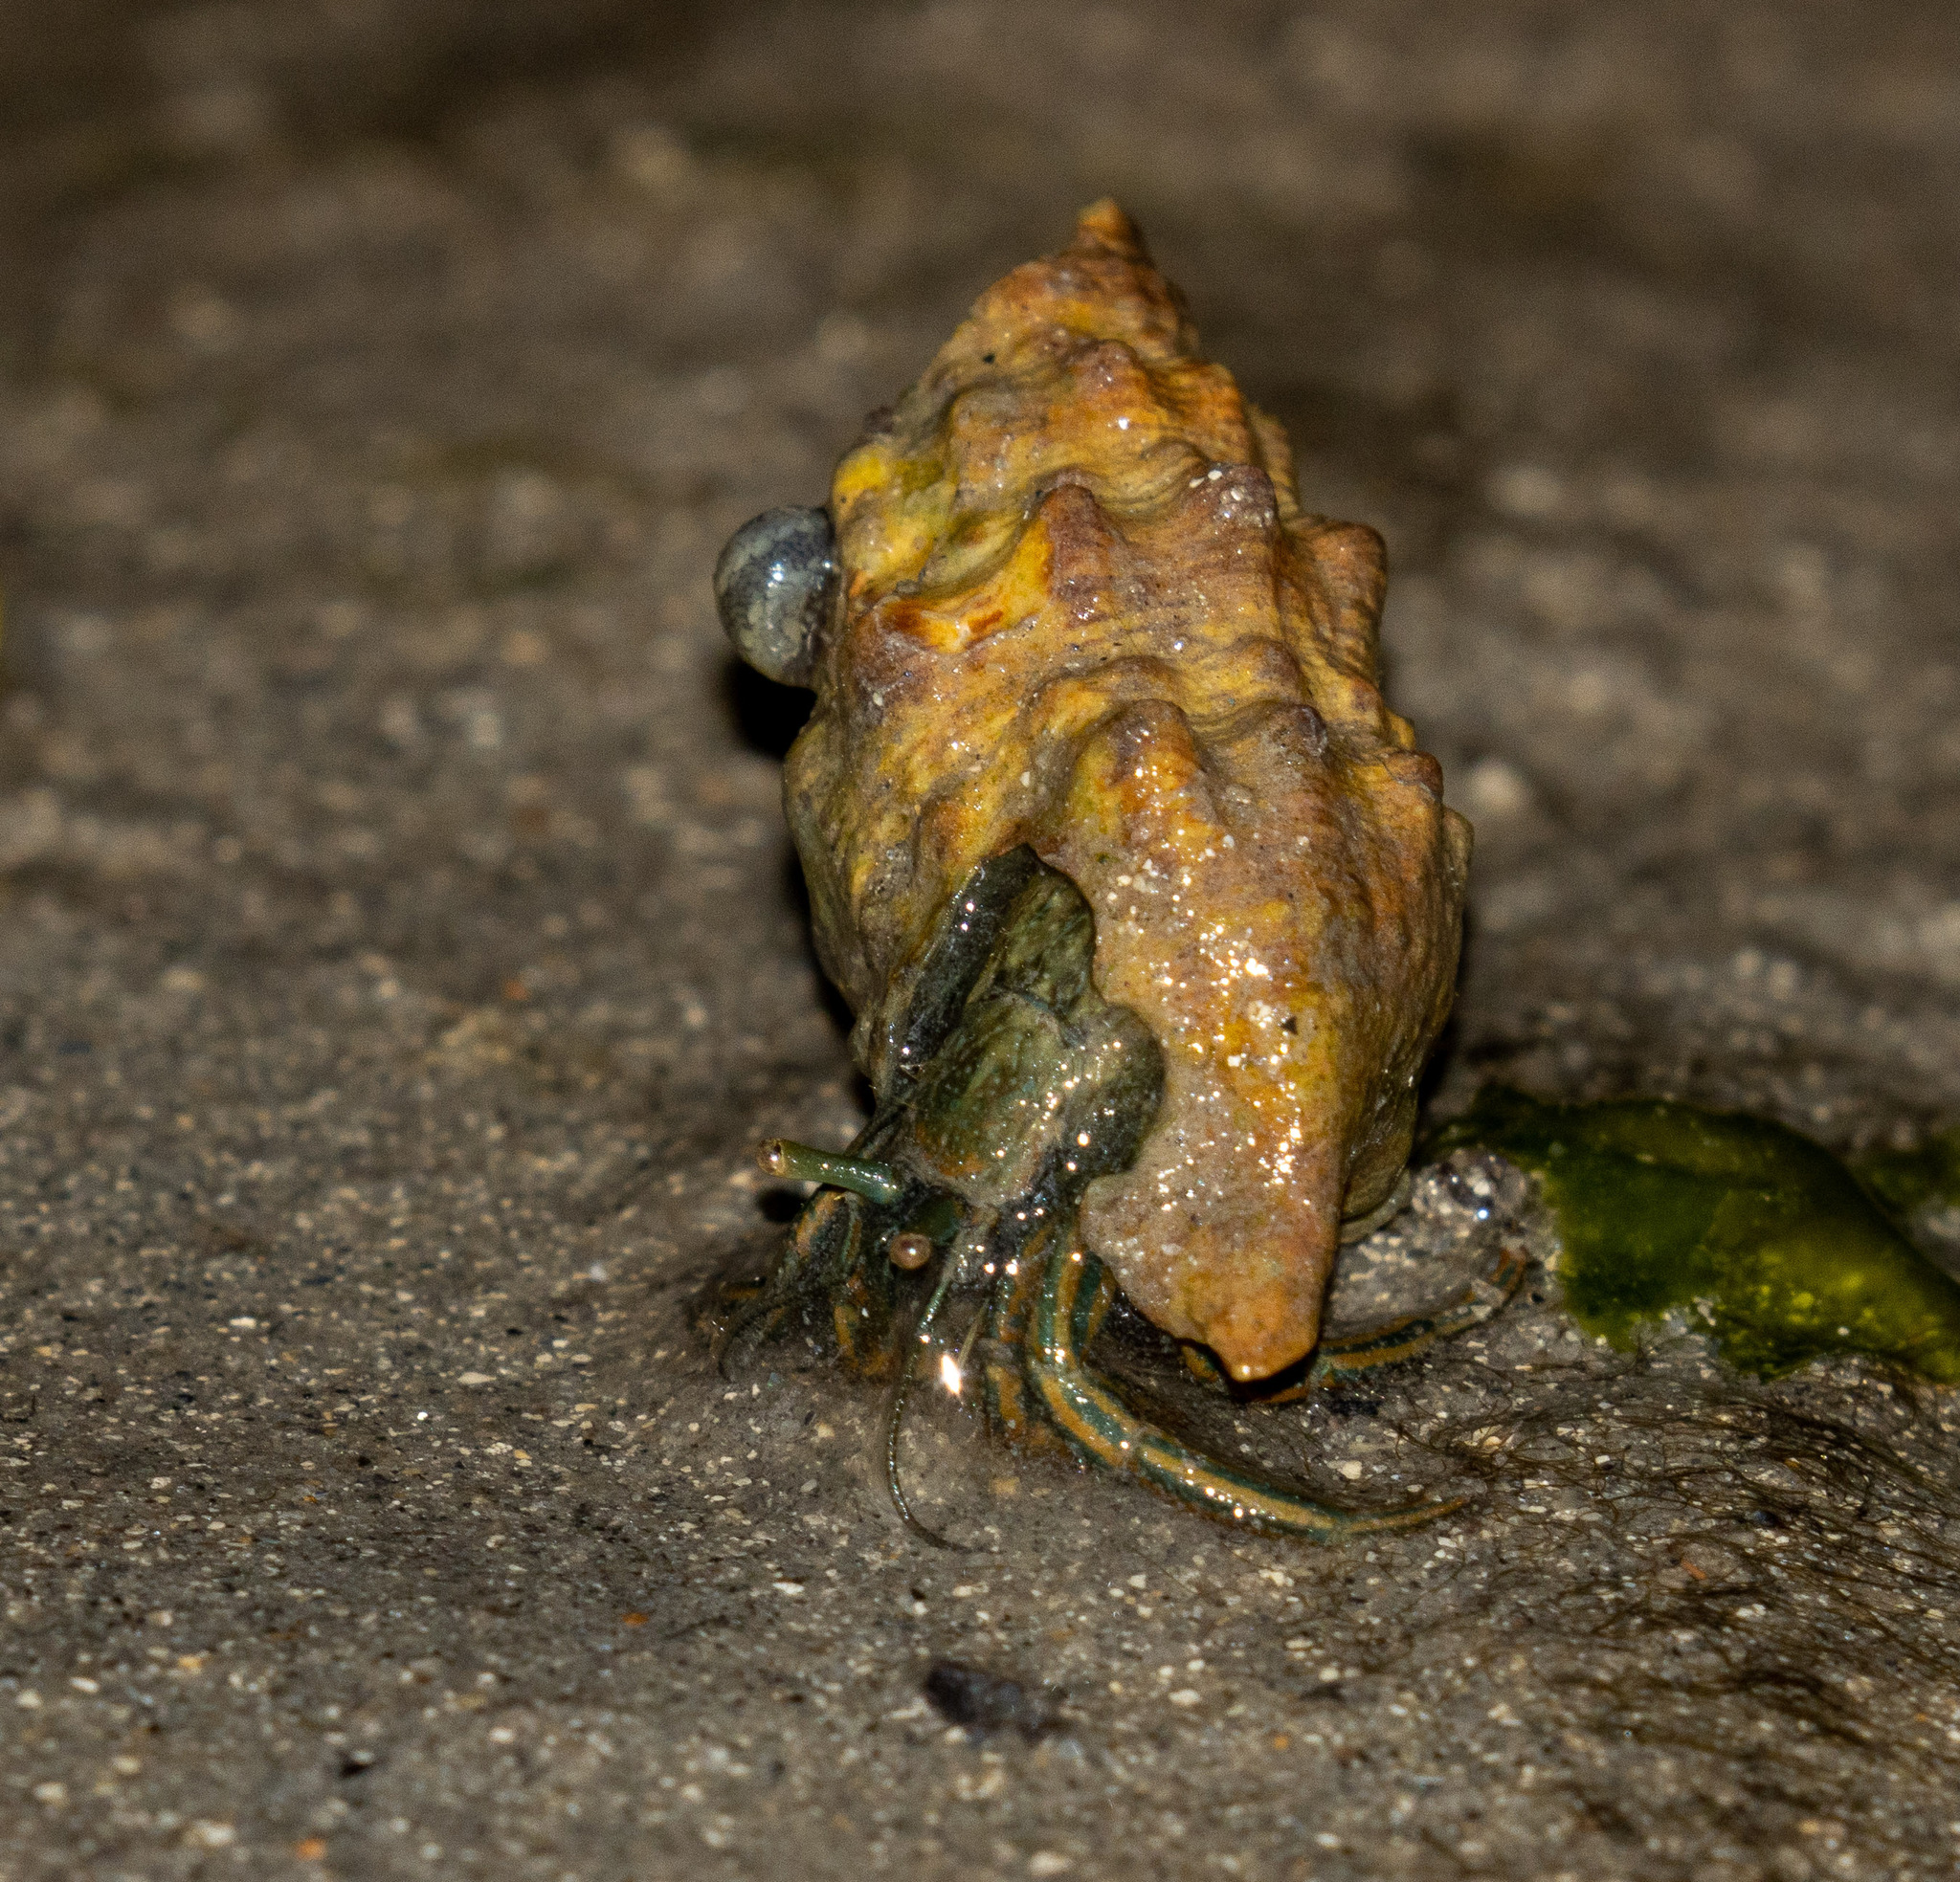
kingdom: Animalia
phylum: Arthropoda
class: Malacostraca
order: Decapoda
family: Diogenidae
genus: Clibanarius
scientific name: Clibanarius sclopetarius
